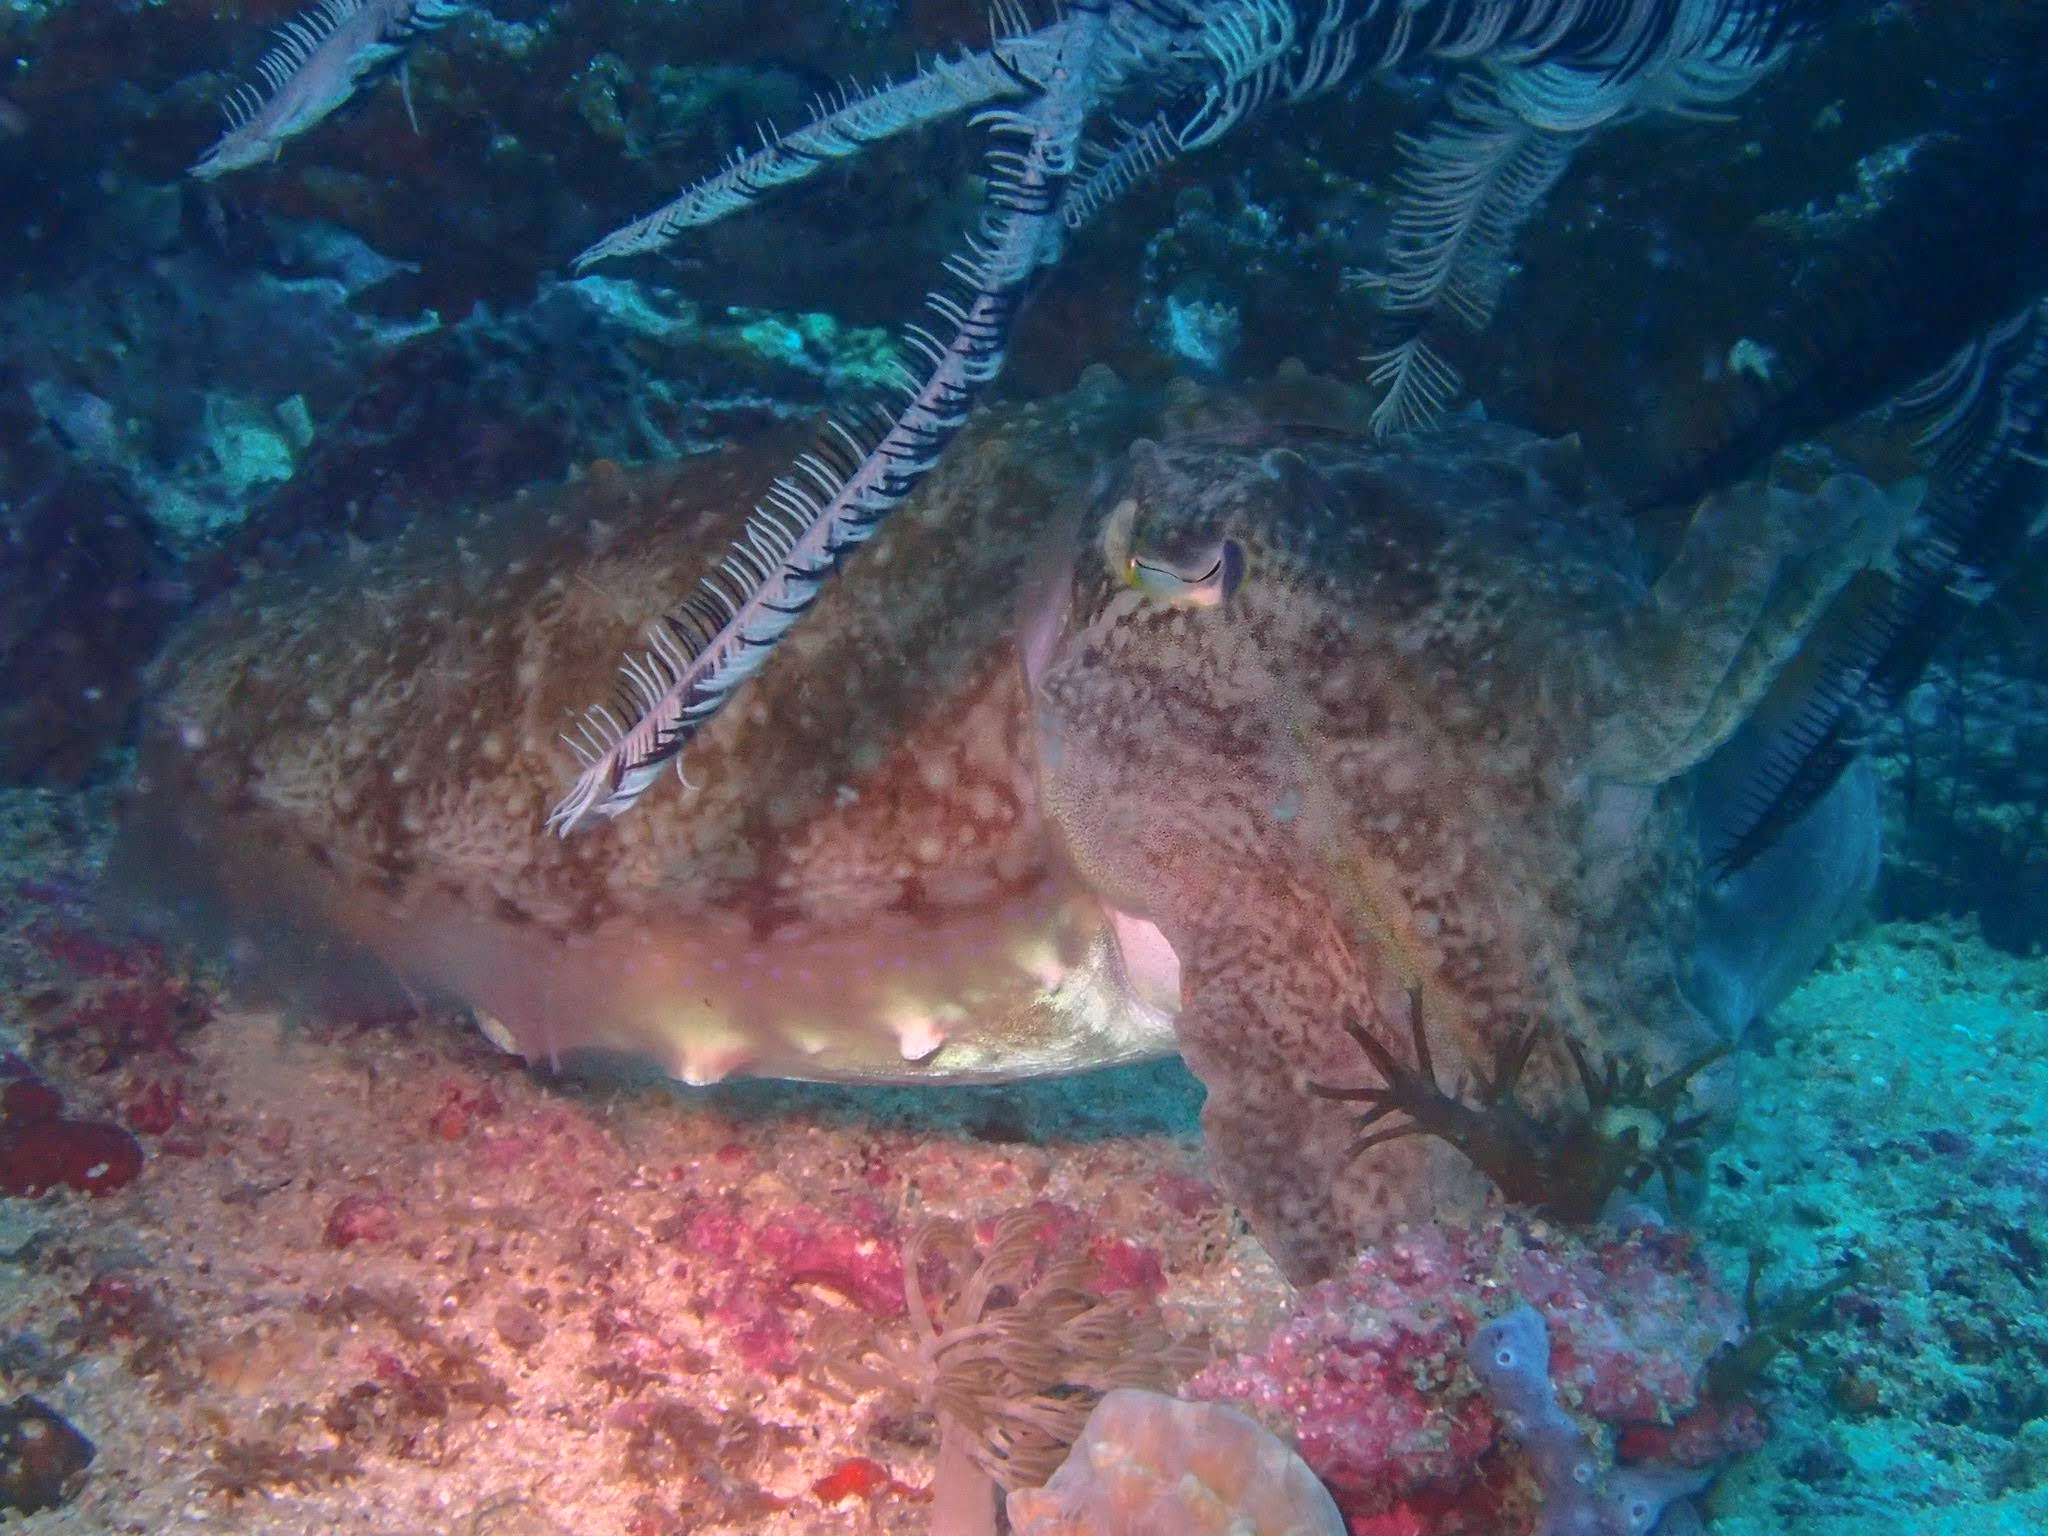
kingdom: Animalia
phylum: Mollusca
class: Cephalopoda
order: Sepiida
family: Sepiidae
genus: Ascarosepion
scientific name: Ascarosepion latimanus
